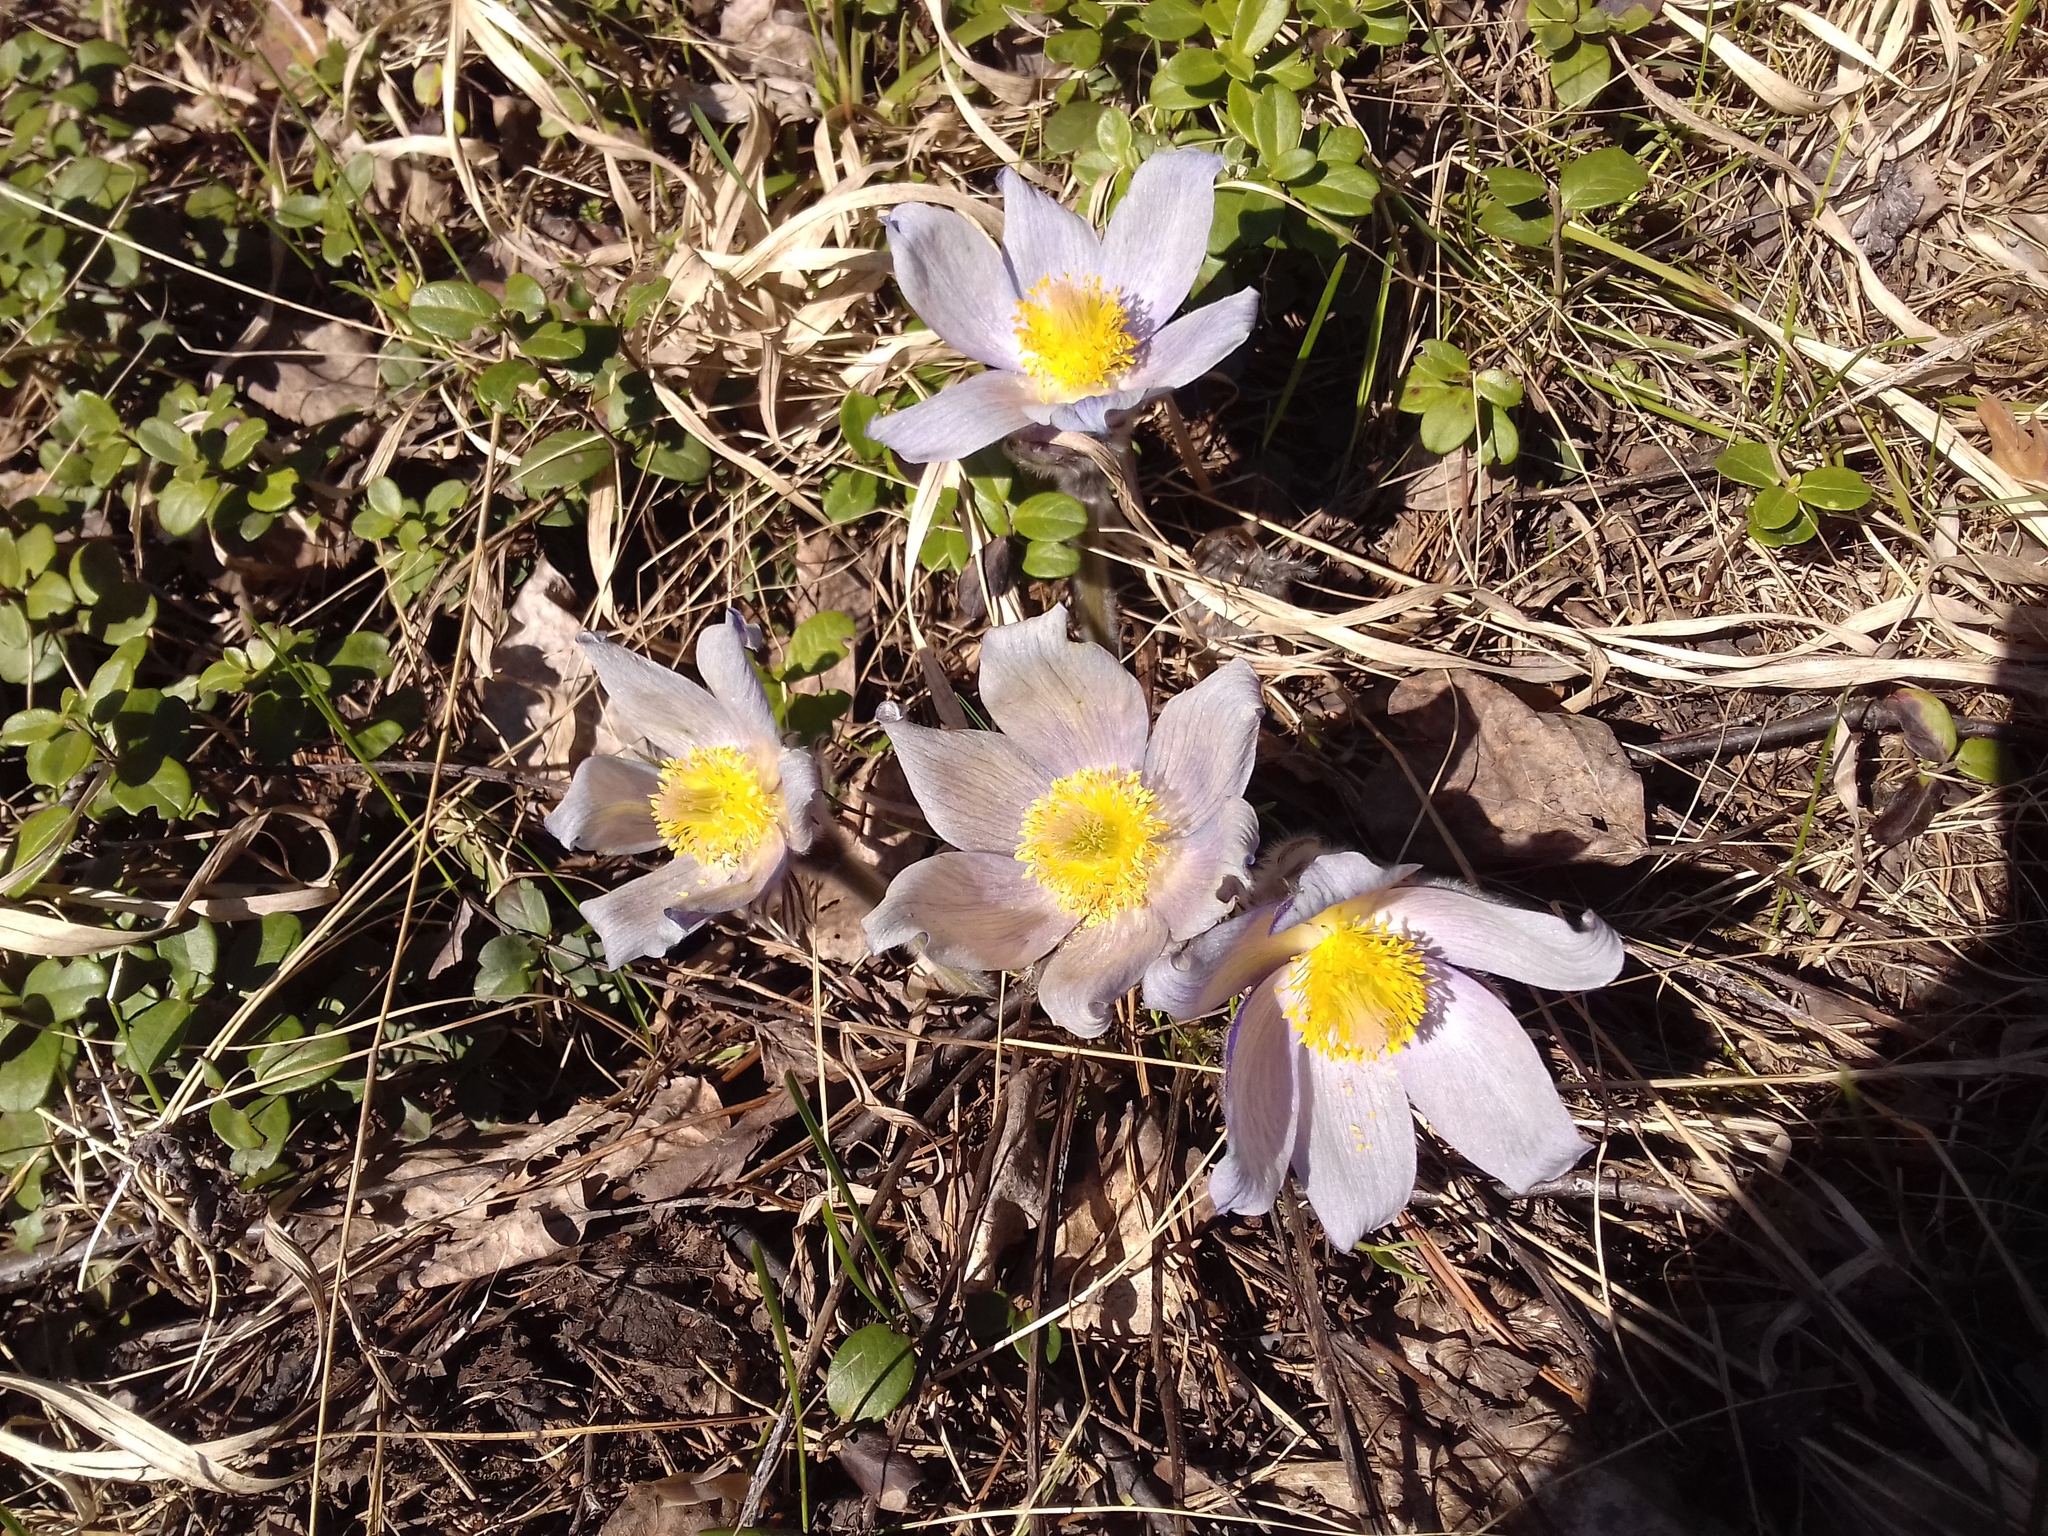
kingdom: Plantae
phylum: Tracheophyta
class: Magnoliopsida
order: Ranunculales
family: Ranunculaceae
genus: Pulsatilla
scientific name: Pulsatilla patens
